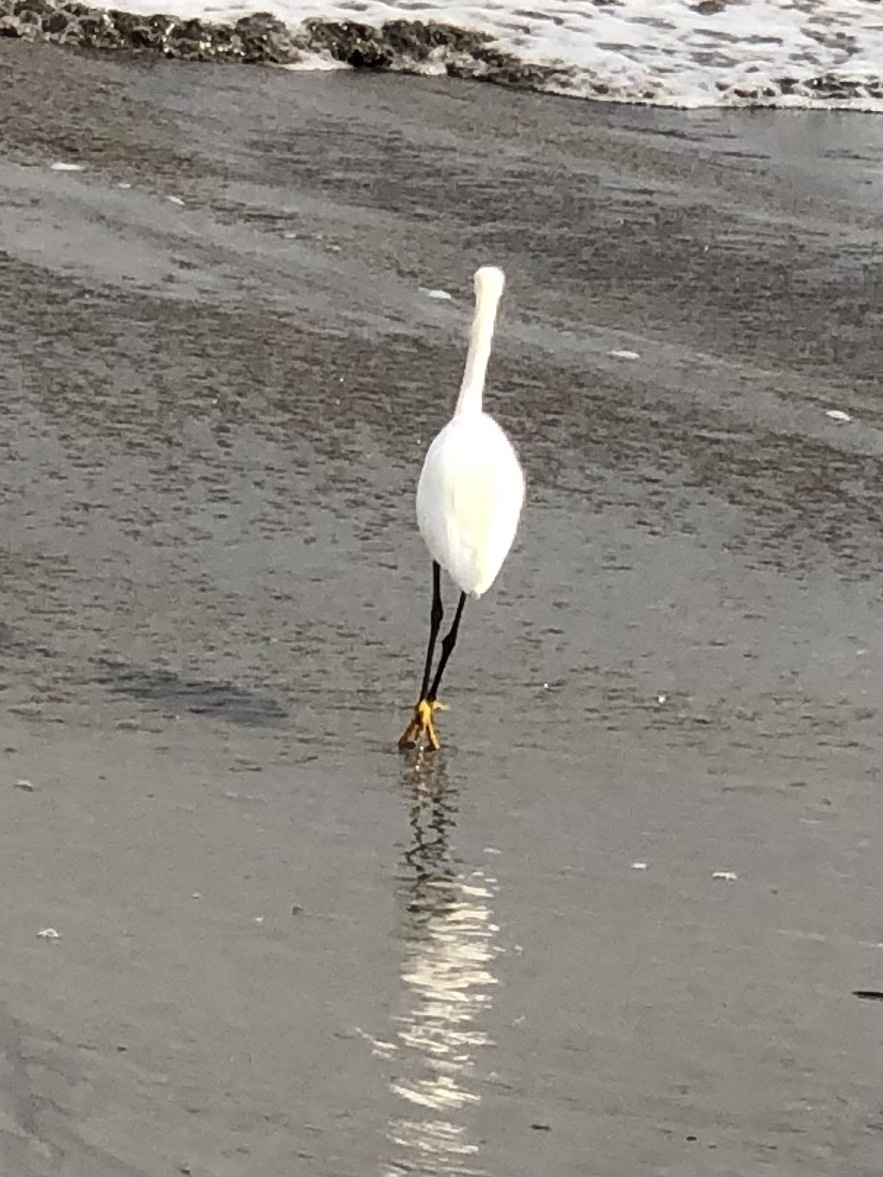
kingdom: Animalia
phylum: Chordata
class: Aves
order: Pelecaniformes
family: Ardeidae
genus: Egretta
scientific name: Egretta thula
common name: Snowy egret
